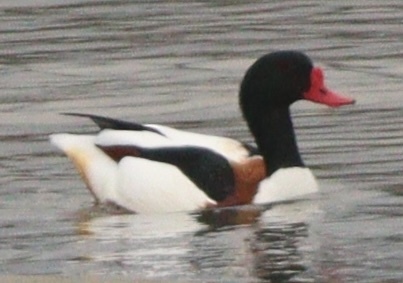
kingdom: Animalia
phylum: Chordata
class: Aves
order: Anseriformes
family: Anatidae
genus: Tadorna
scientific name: Tadorna tadorna
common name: Common shelduck
